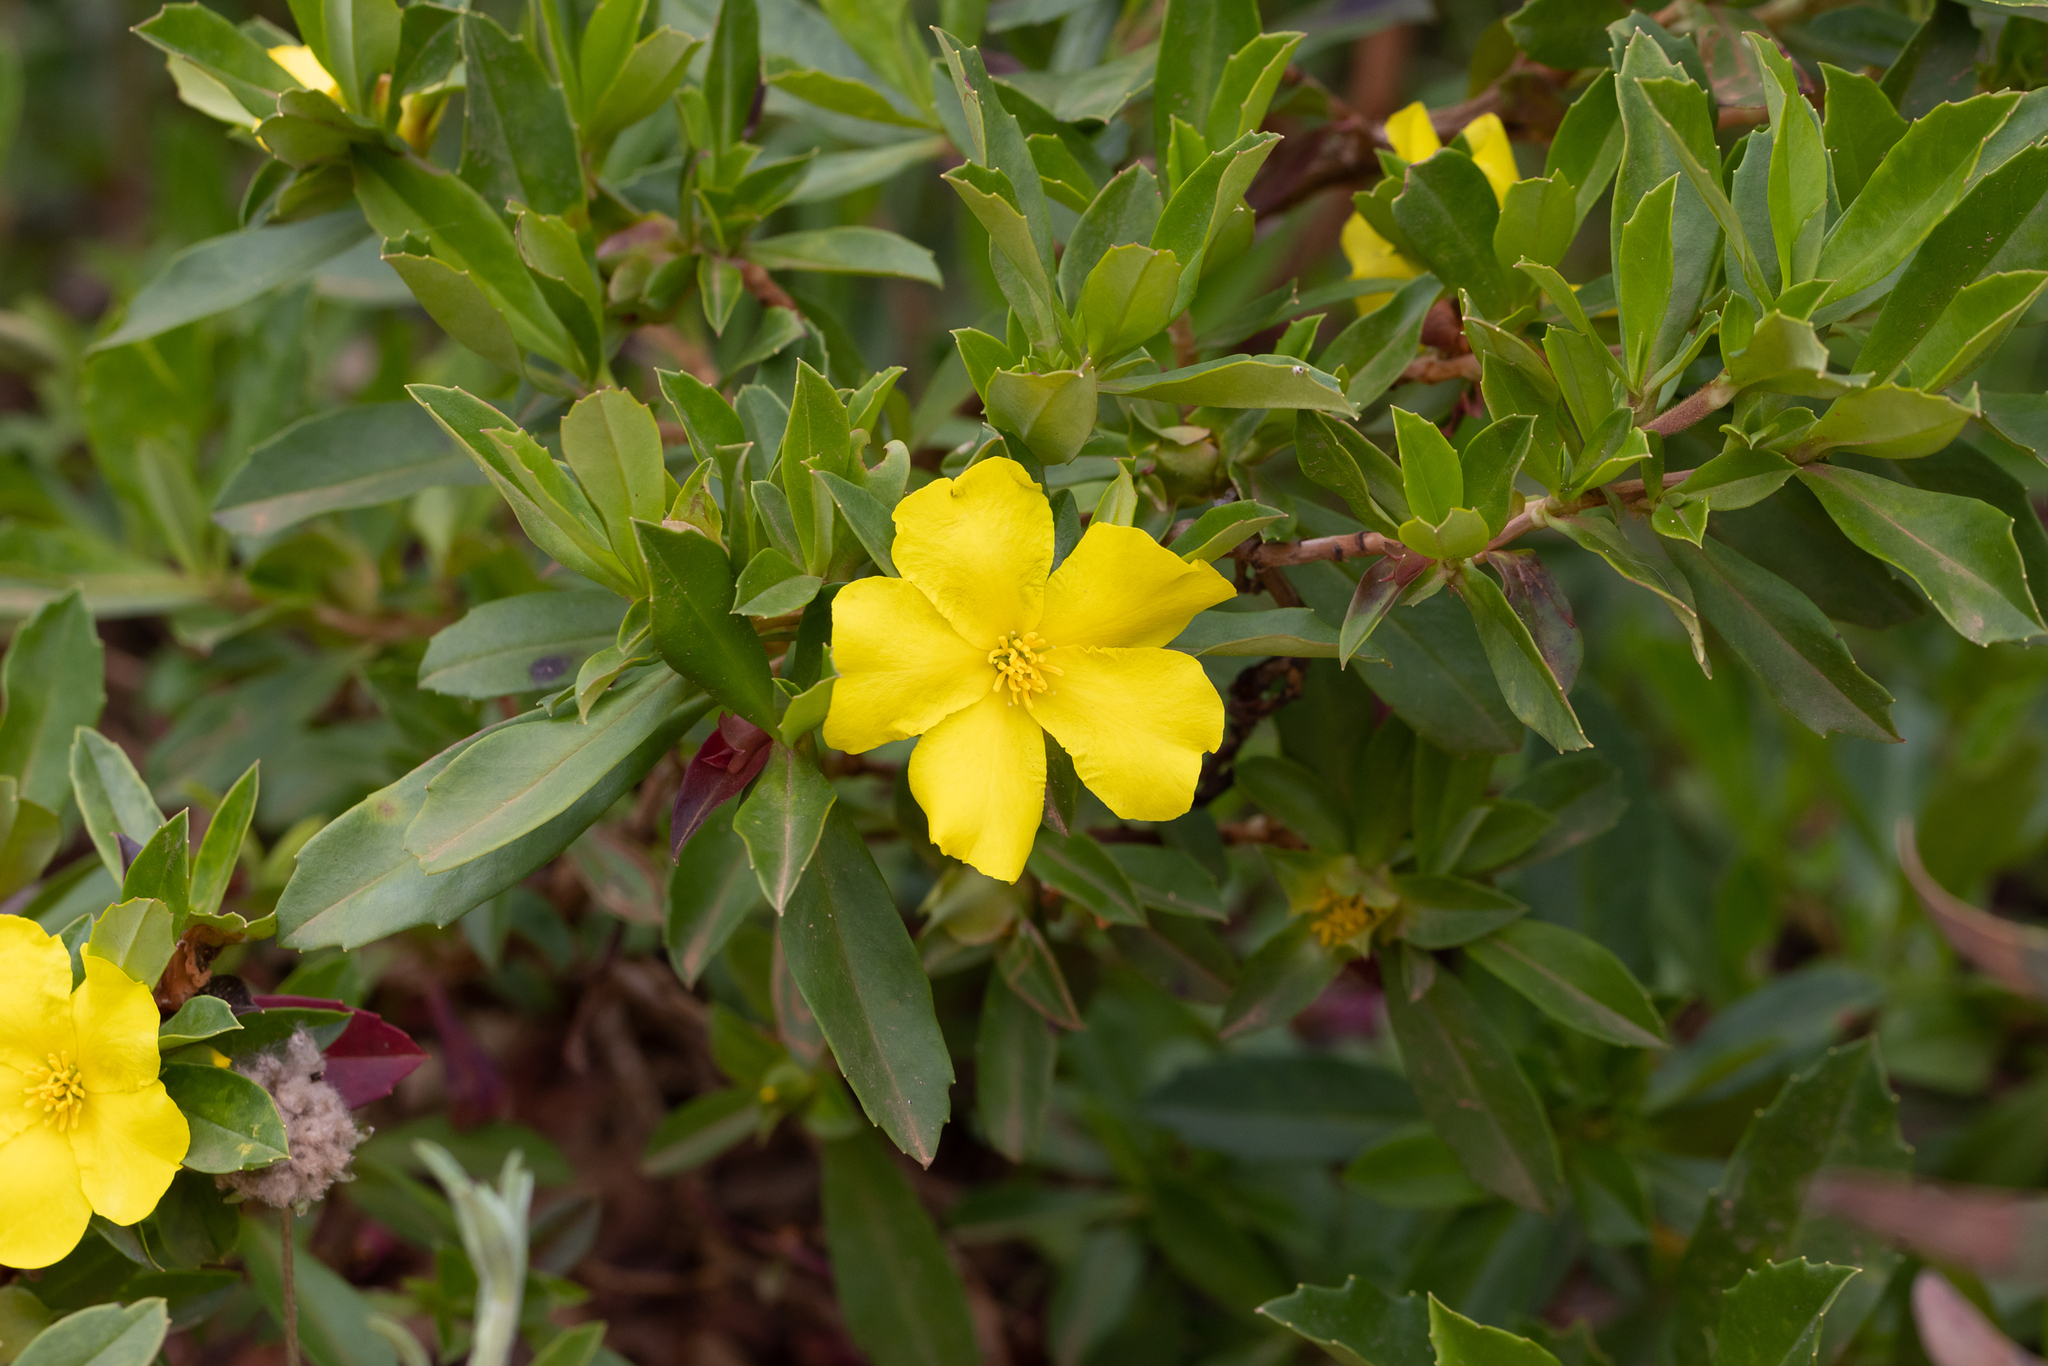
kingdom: Plantae
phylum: Tracheophyta
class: Magnoliopsida
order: Dilleniales
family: Dilleniaceae
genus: Hibbertia
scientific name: Hibbertia cuneiformis
